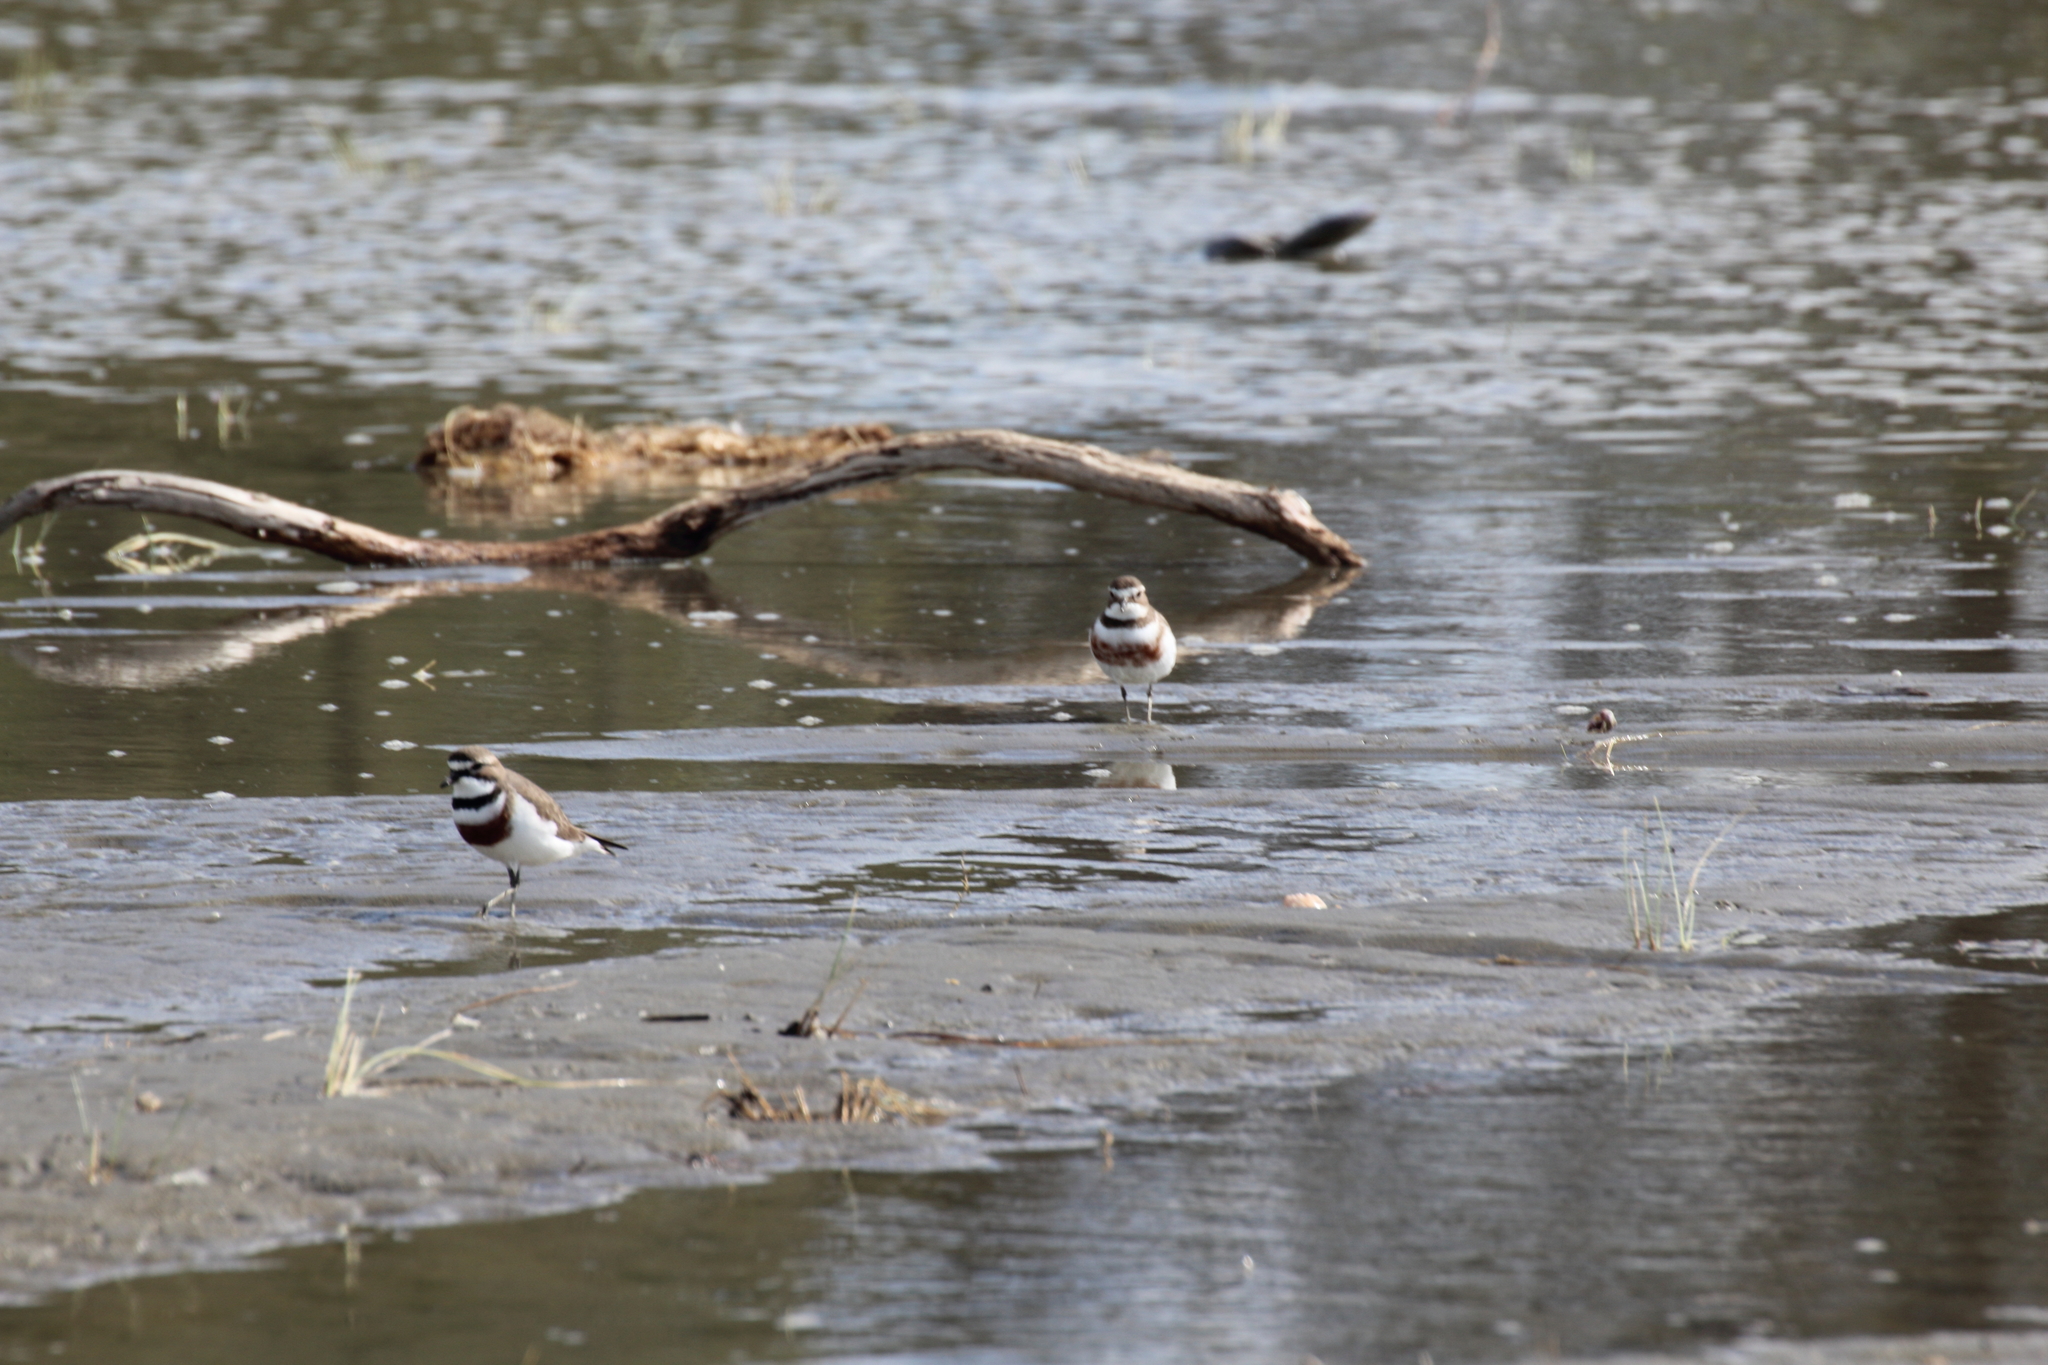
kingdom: Animalia
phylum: Chordata
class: Aves
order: Charadriiformes
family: Charadriidae
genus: Anarhynchus
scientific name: Anarhynchus
